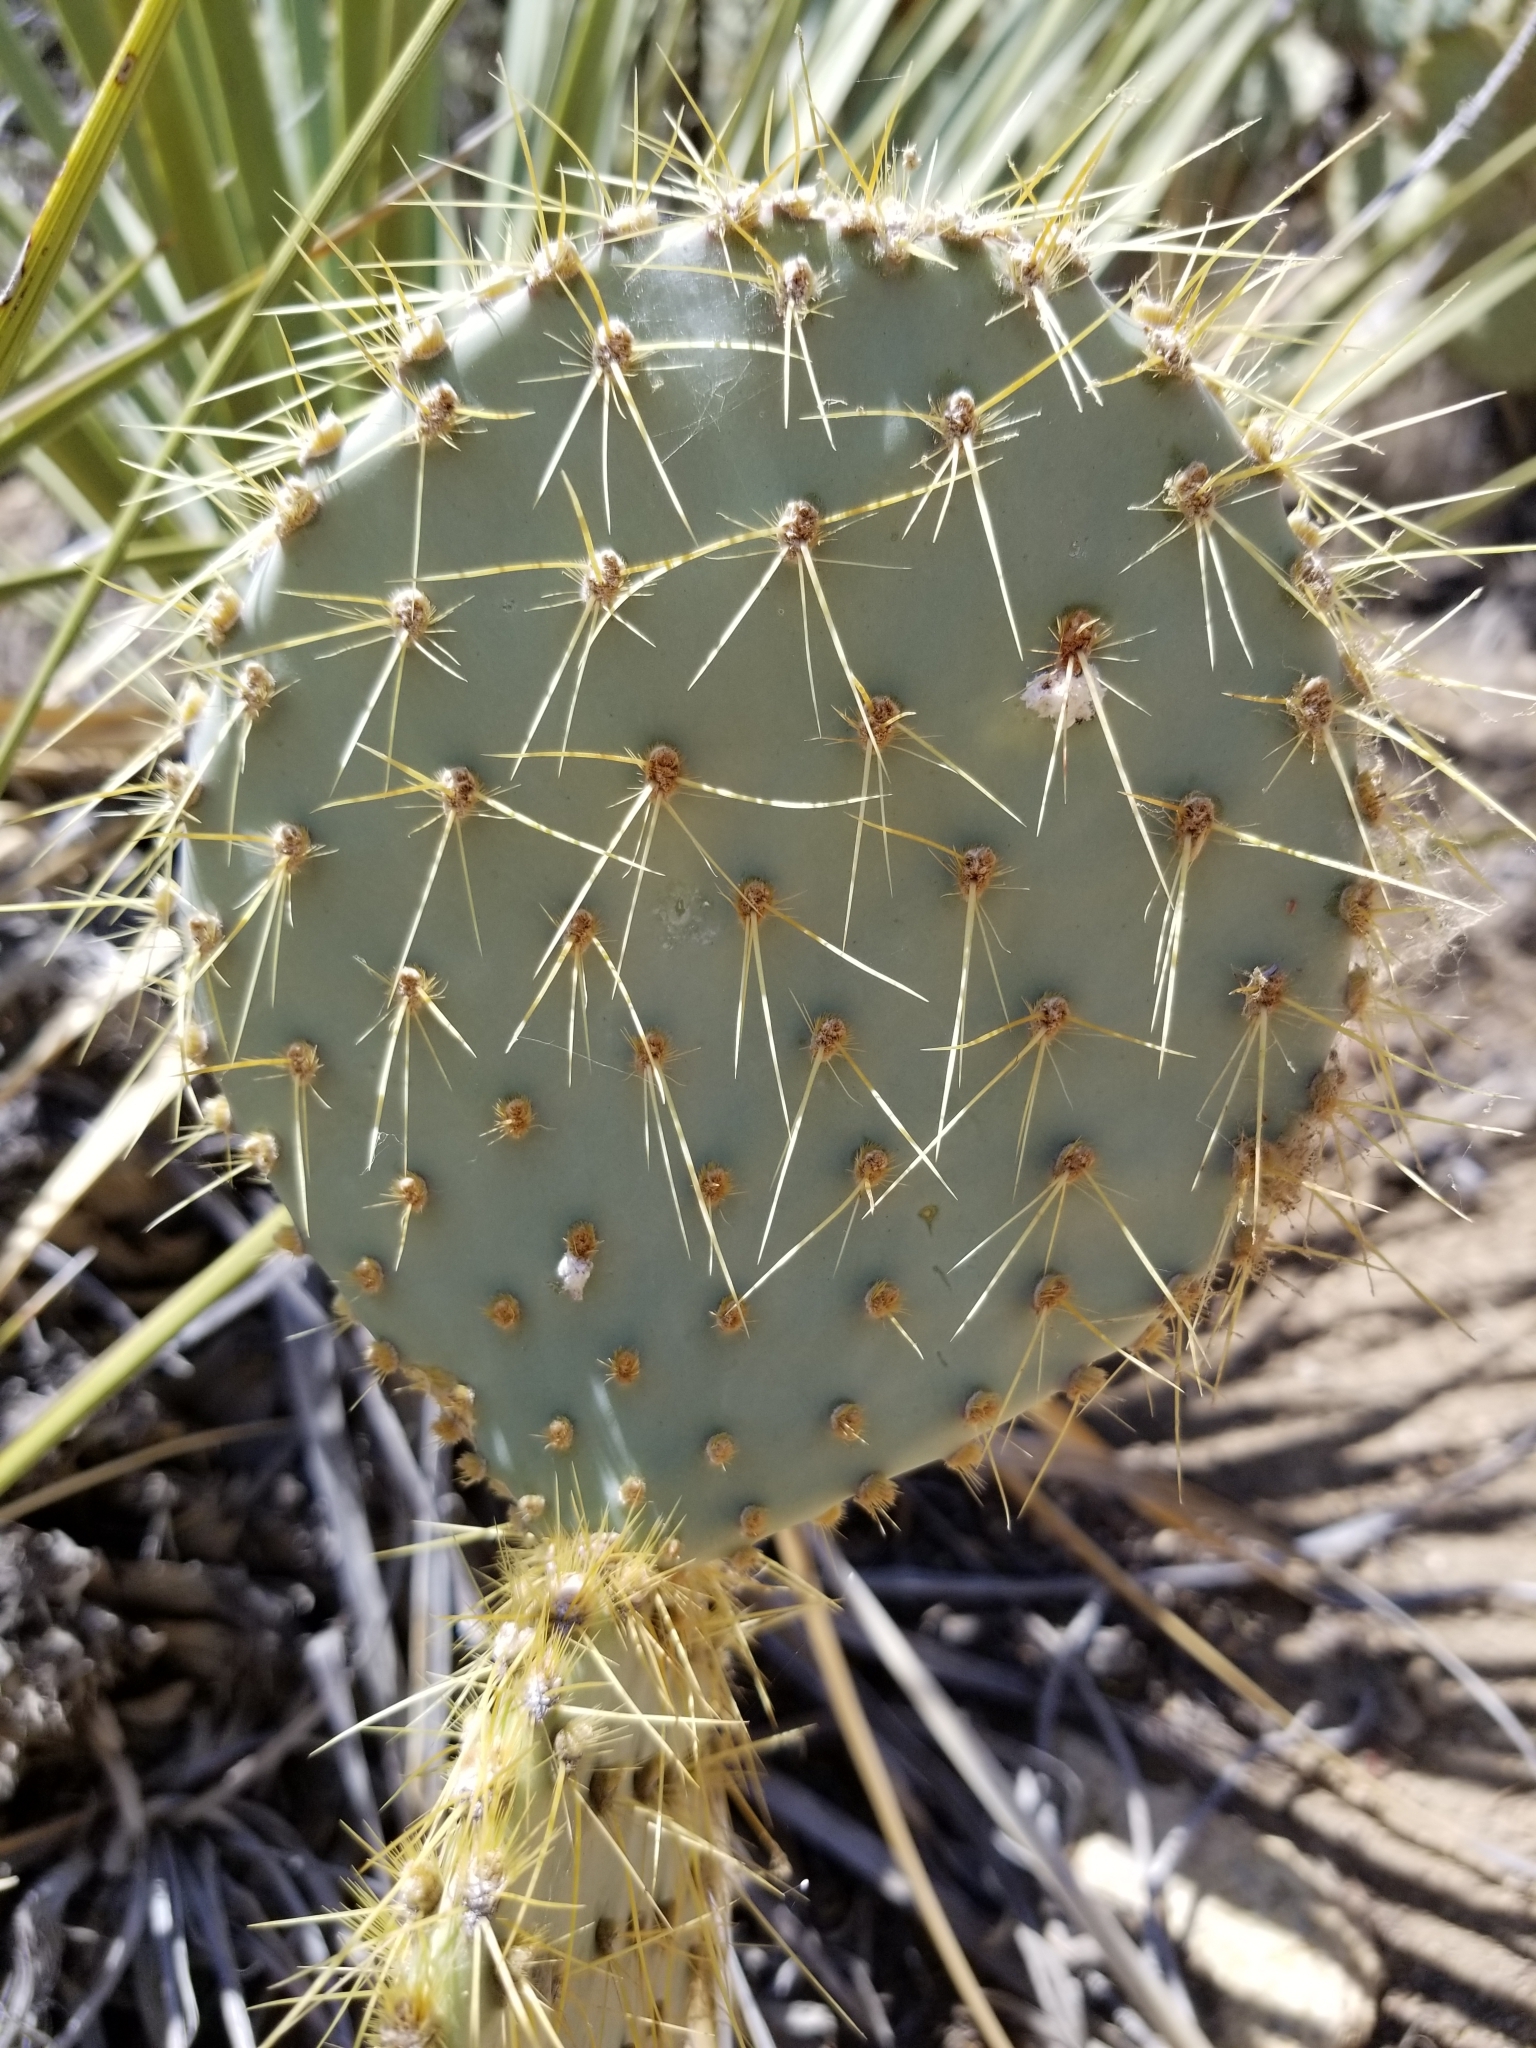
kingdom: Plantae
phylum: Tracheophyta
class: Magnoliopsida
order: Caryophyllales
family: Cactaceae
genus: Opuntia
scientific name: Opuntia chlorotica
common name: Dollar-joint prickly-pear
